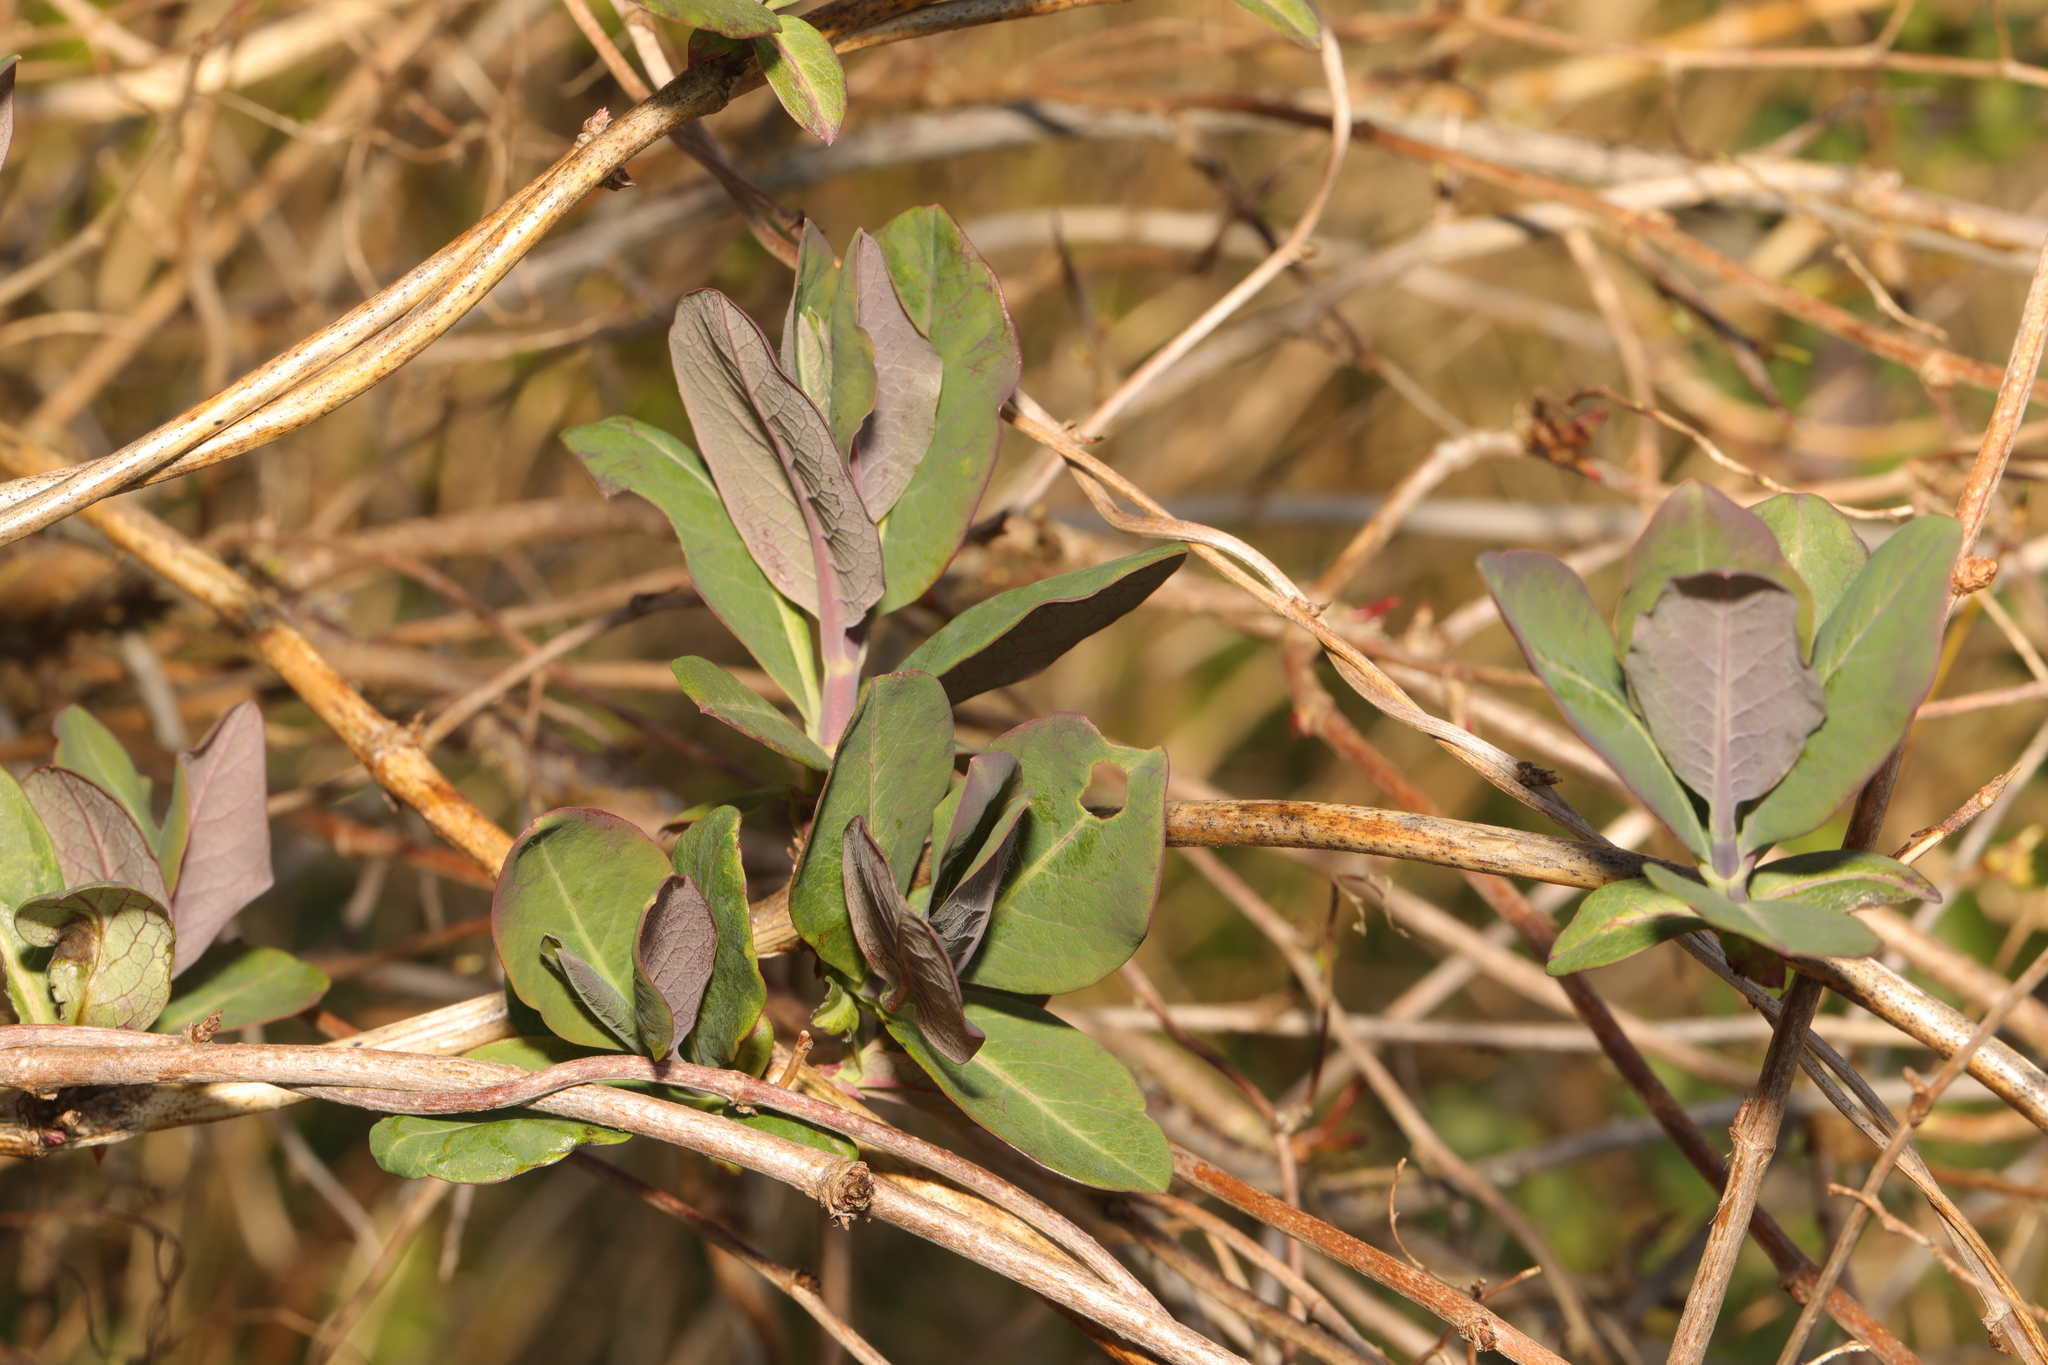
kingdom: Plantae
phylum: Tracheophyta
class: Magnoliopsida
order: Dipsacales
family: Caprifoliaceae
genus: Lonicera
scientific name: Lonicera periclymenum
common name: European honeysuckle
